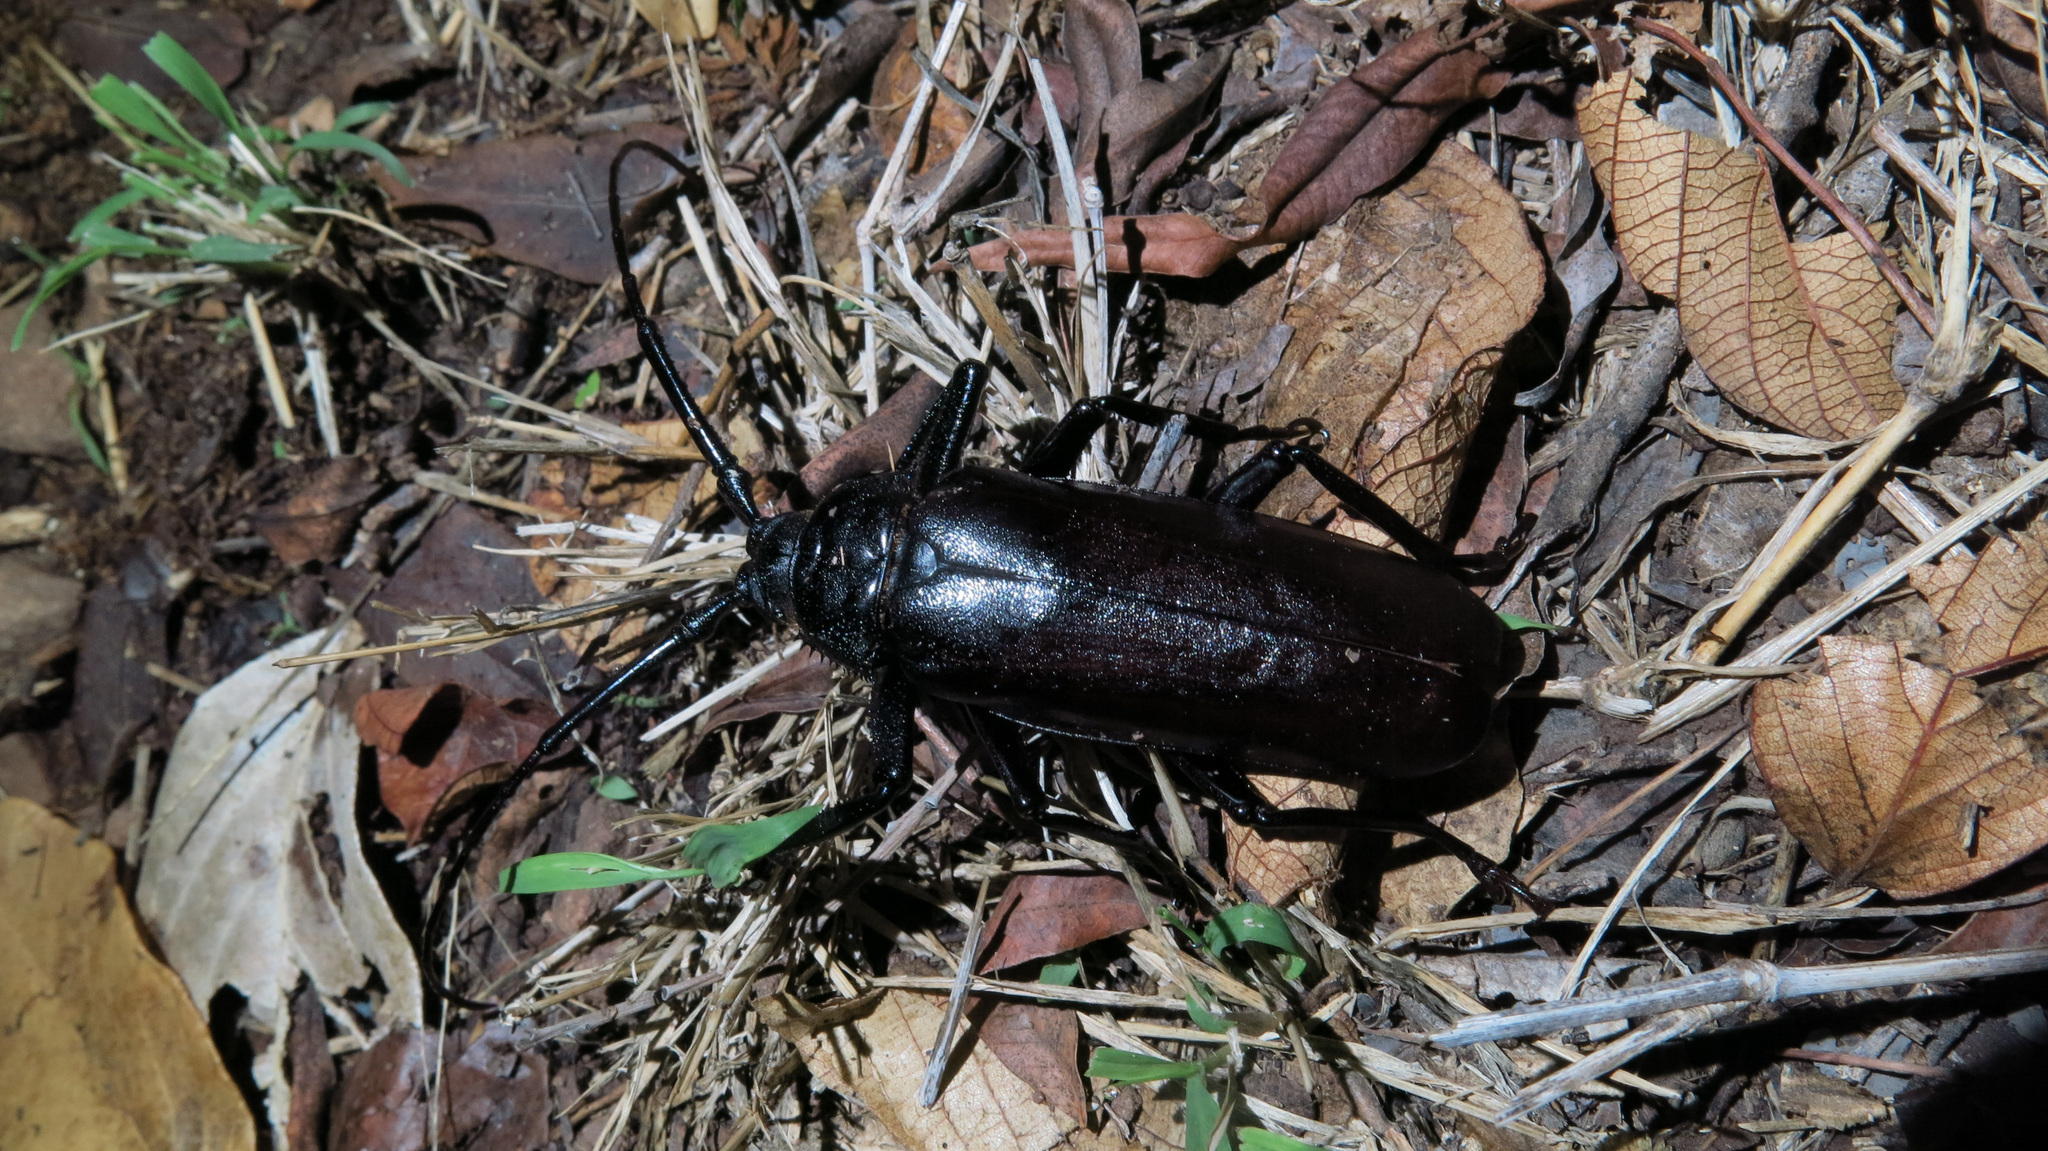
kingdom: Animalia
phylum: Arthropoda
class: Insecta
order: Coleoptera
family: Cerambycidae
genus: Macrotoma
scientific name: Macrotoma palmata
